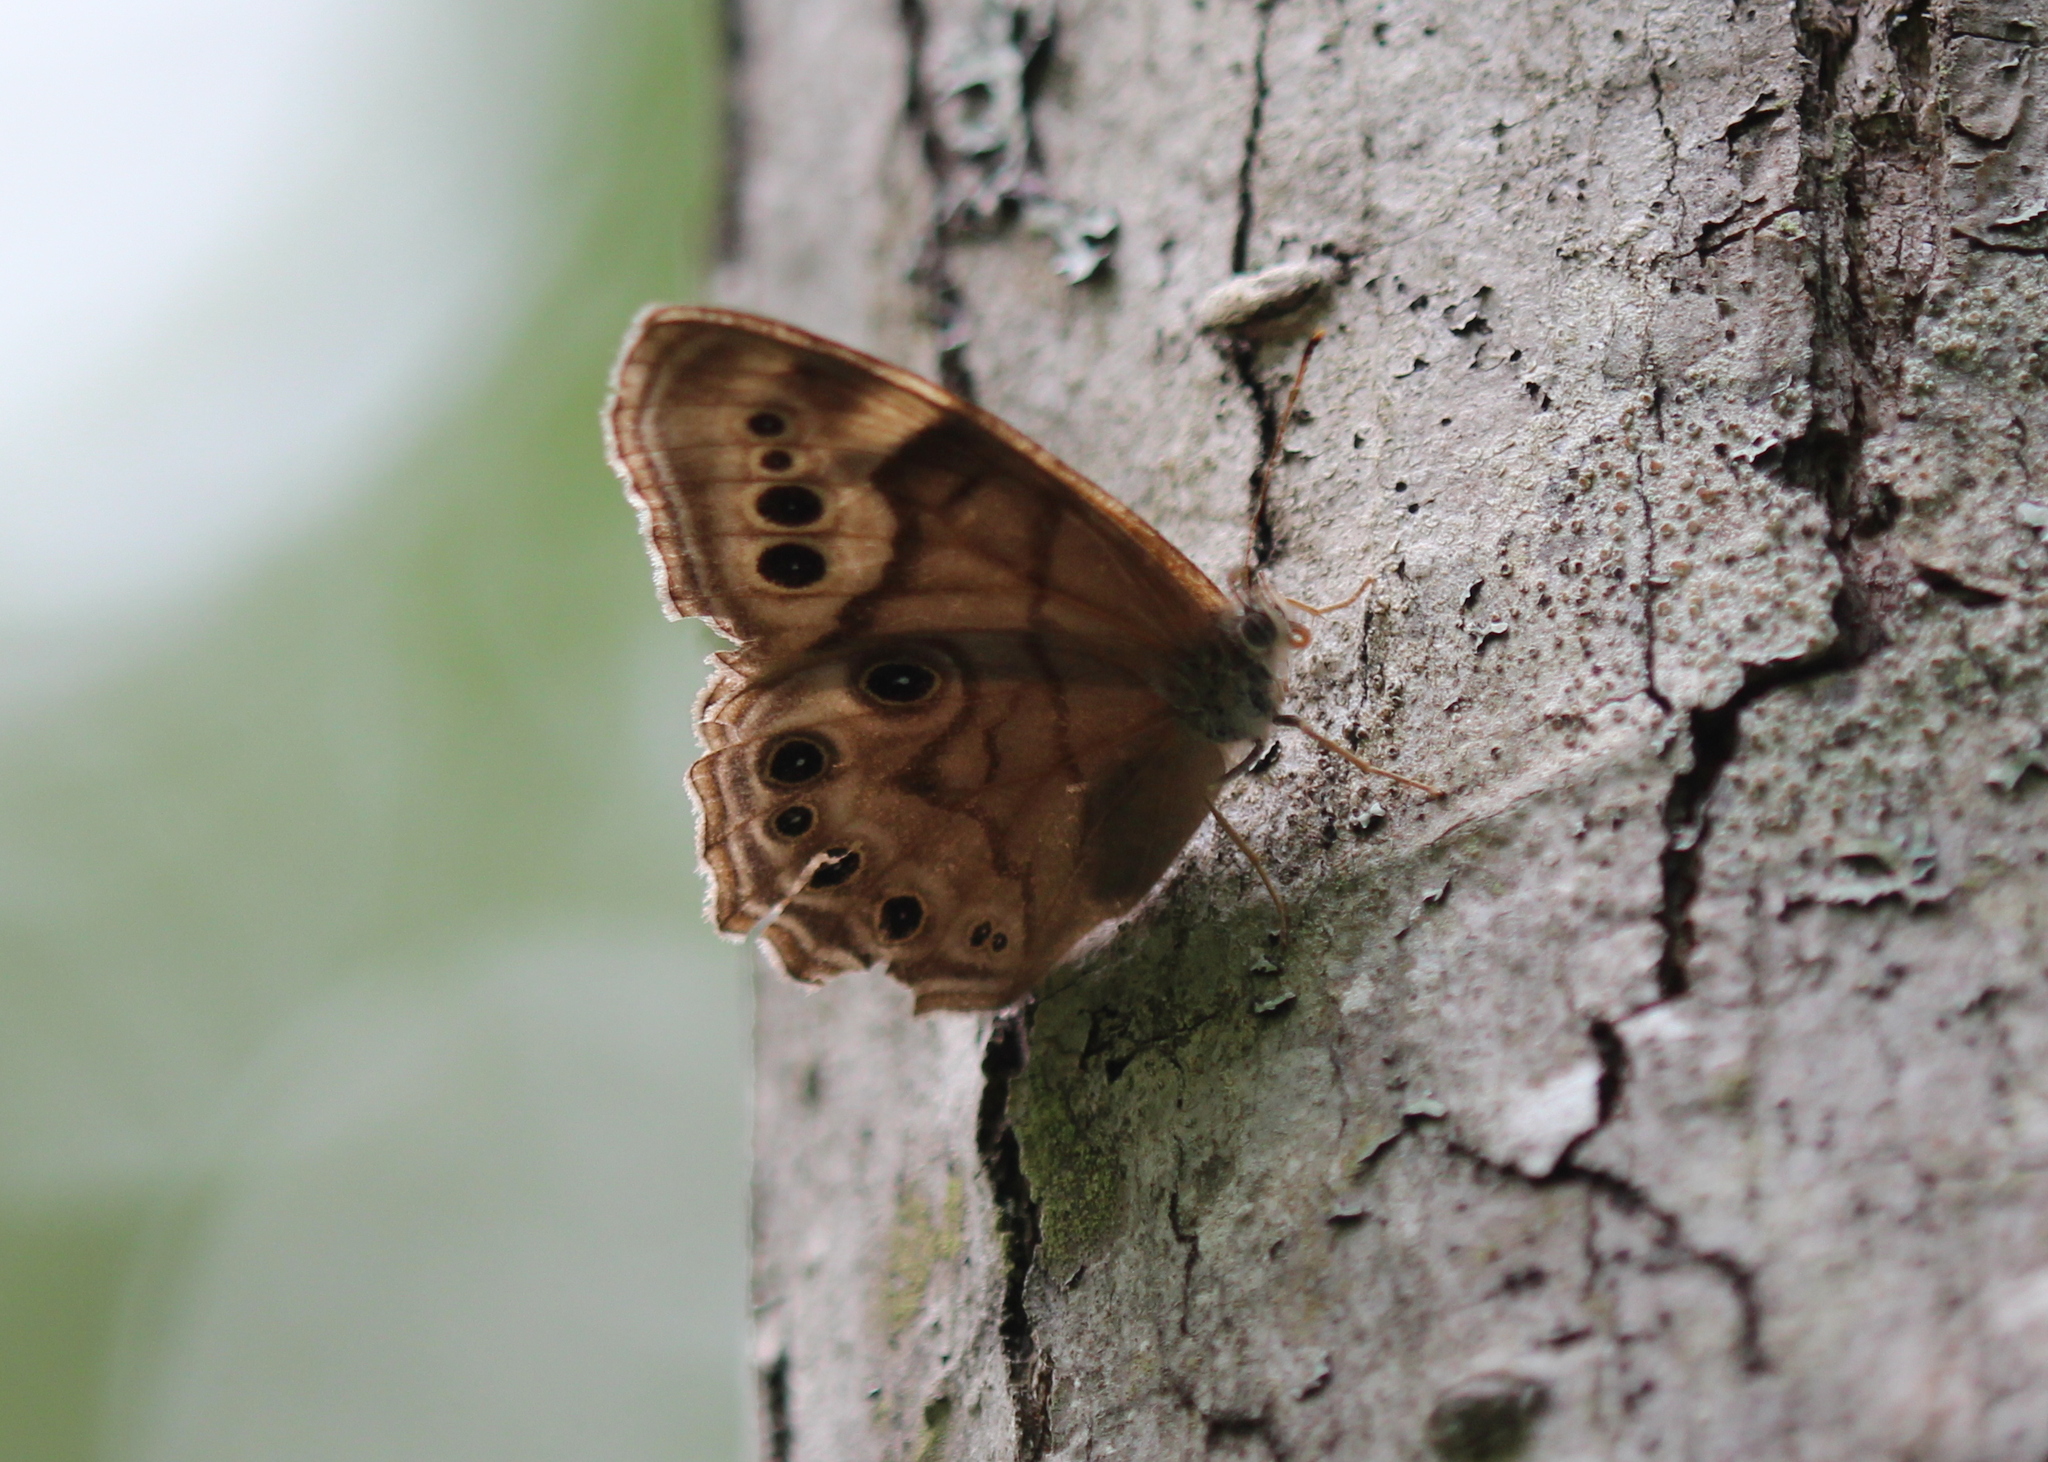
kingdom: Animalia
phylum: Arthropoda
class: Insecta
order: Lepidoptera
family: Nymphalidae
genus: Lethe
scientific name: Lethe anthedon
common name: Northern pearly-eye
